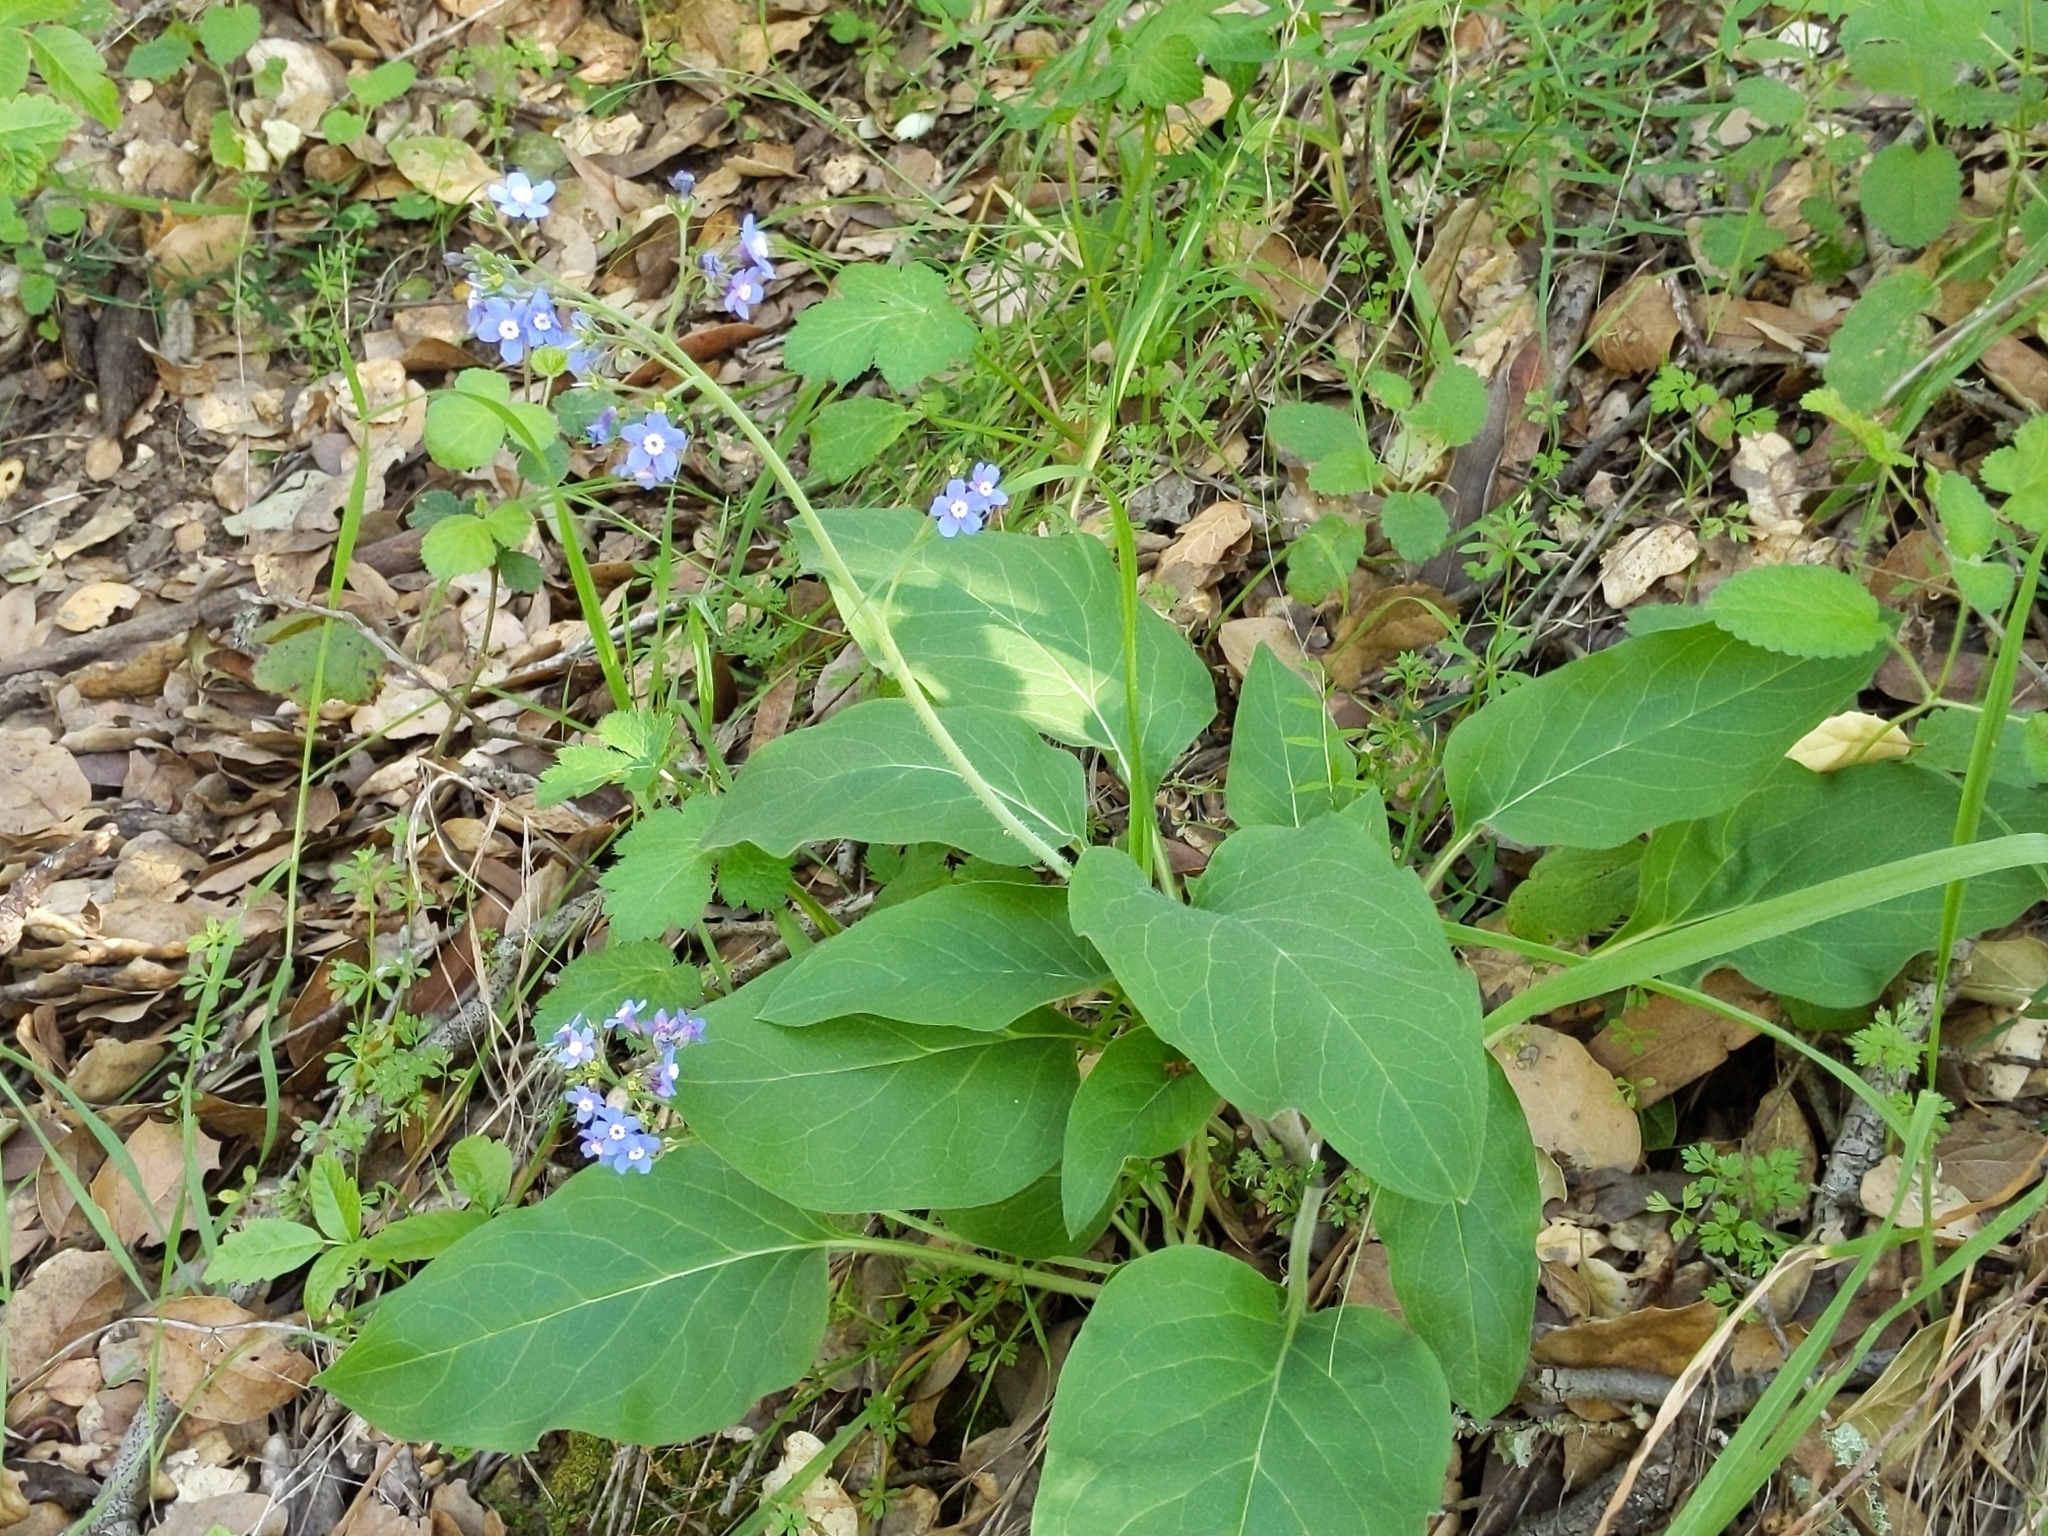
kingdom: Plantae
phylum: Tracheophyta
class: Magnoliopsida
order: Boraginales
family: Boraginaceae
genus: Adelinia
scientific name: Adelinia grande
